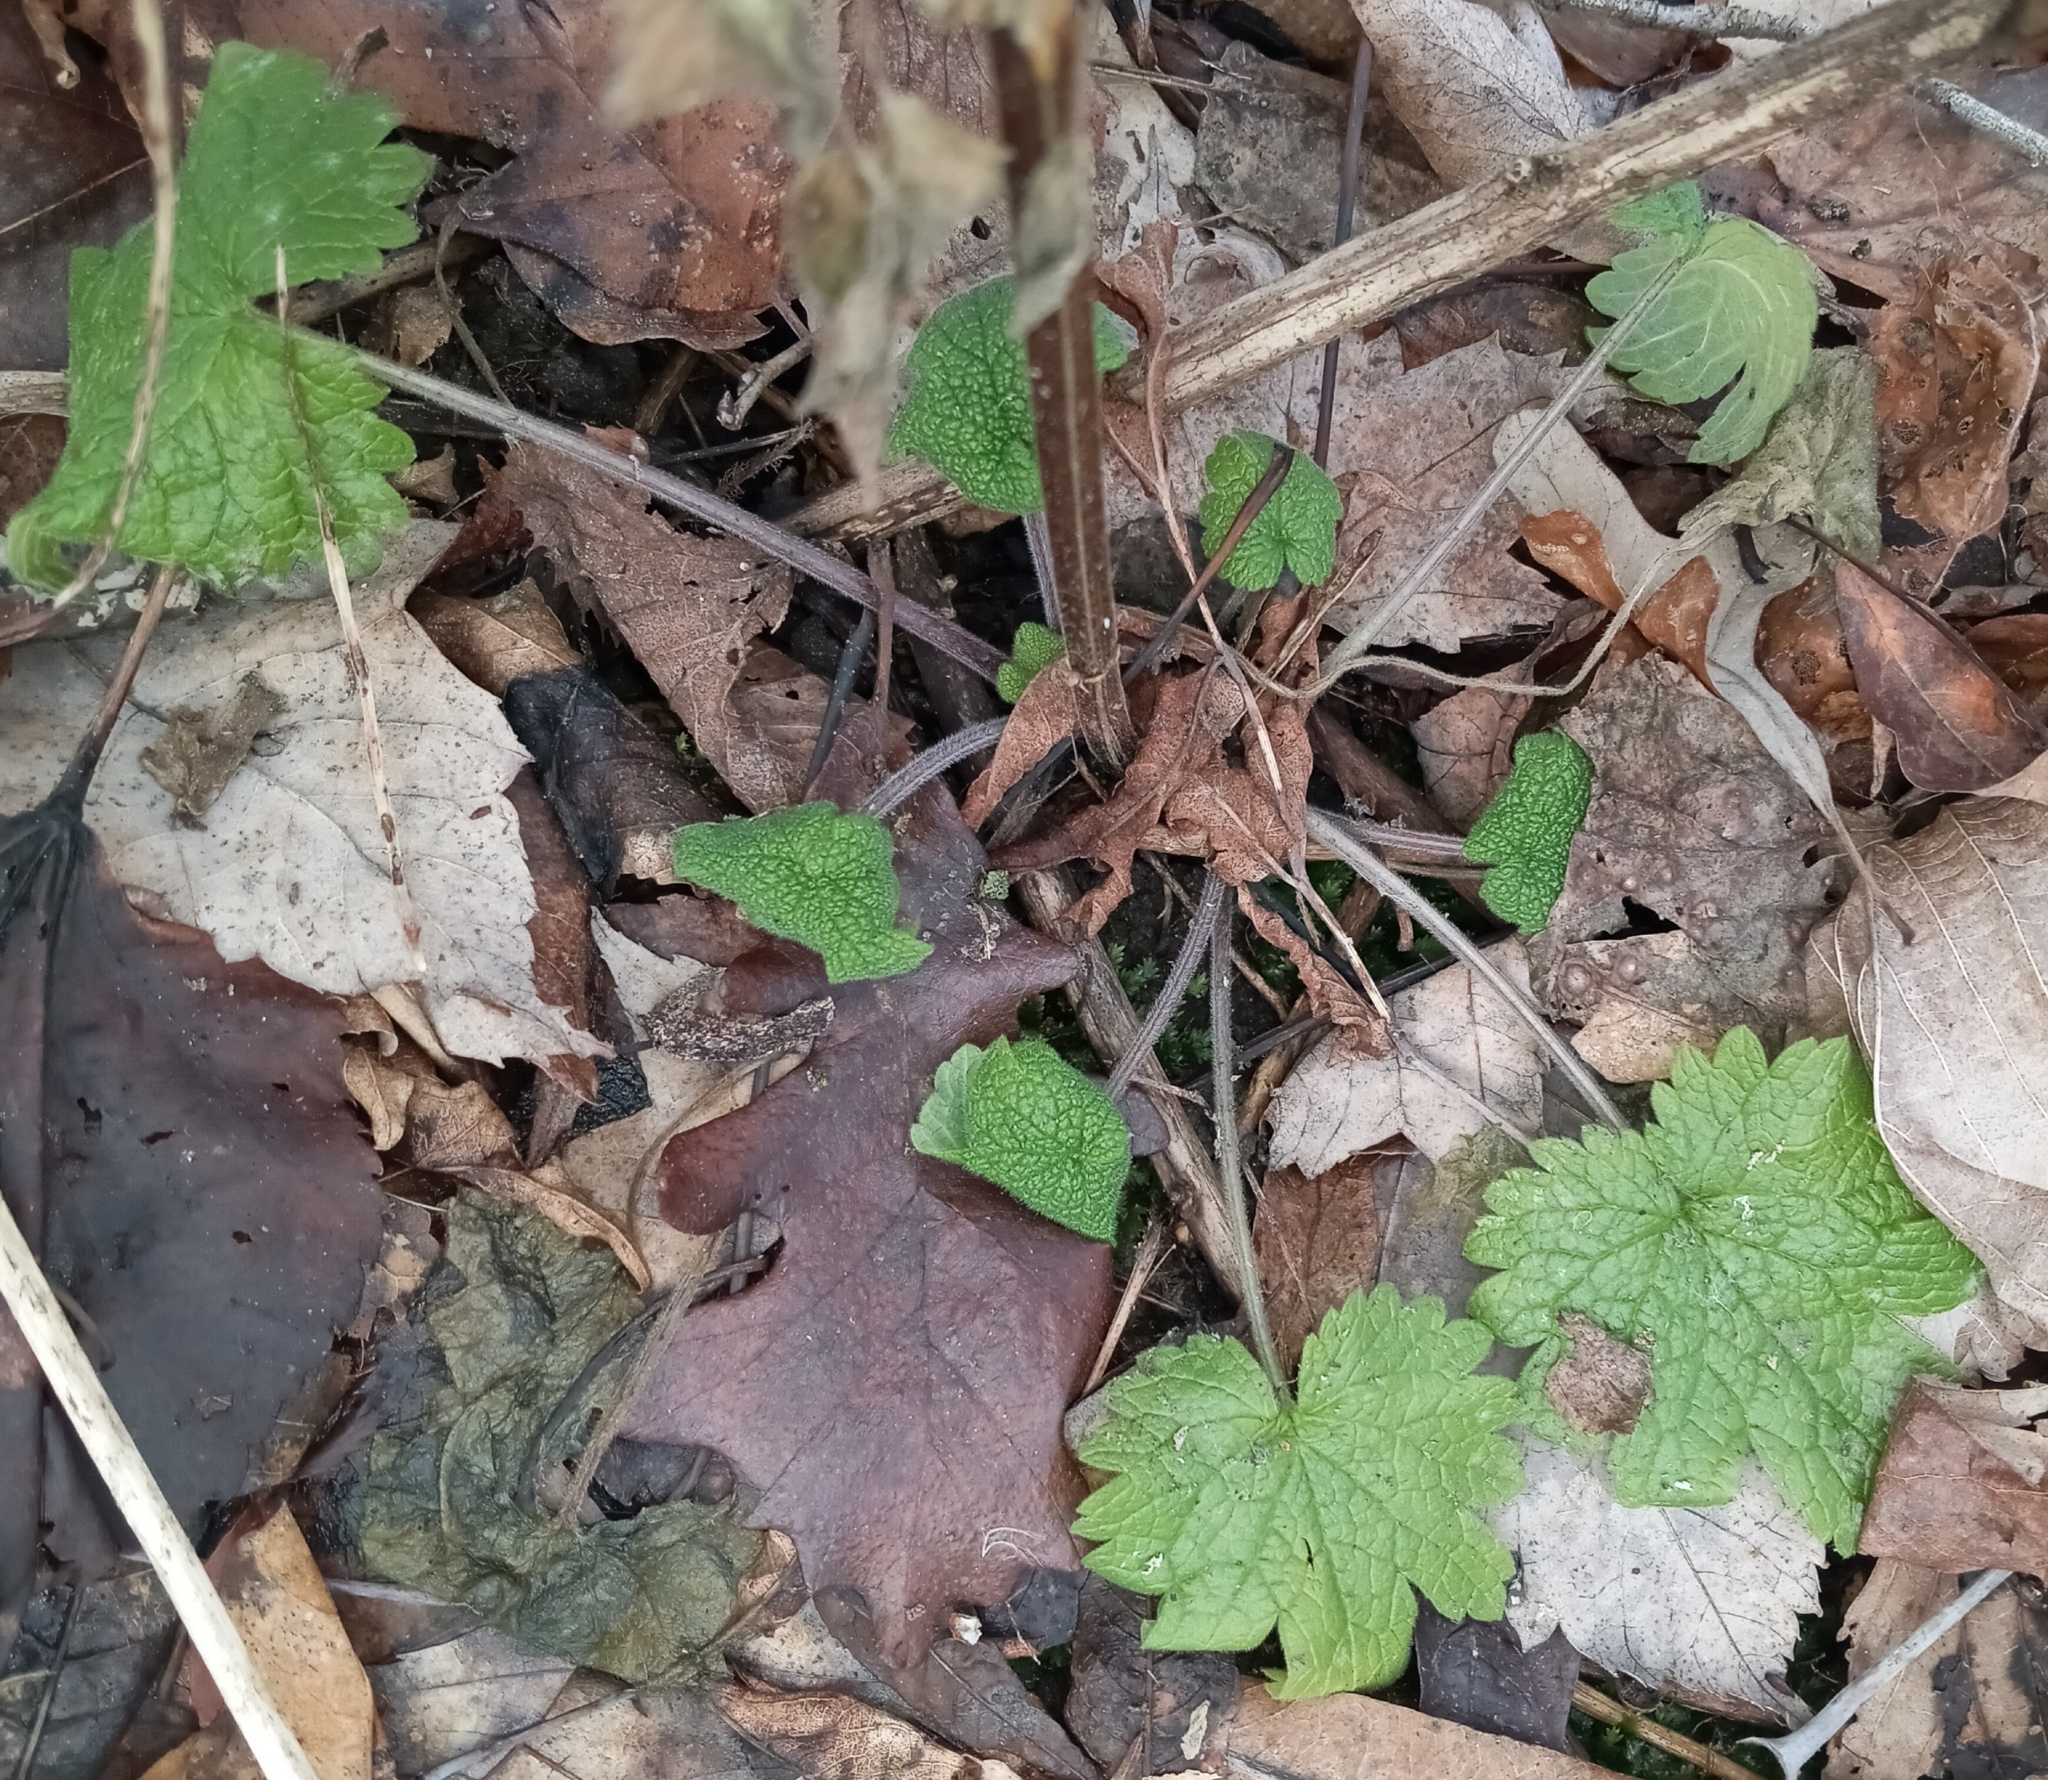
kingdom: Plantae
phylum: Tracheophyta
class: Magnoliopsida
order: Lamiales
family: Lamiaceae
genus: Leonurus
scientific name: Leonurus cardiaca
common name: Motherwort
